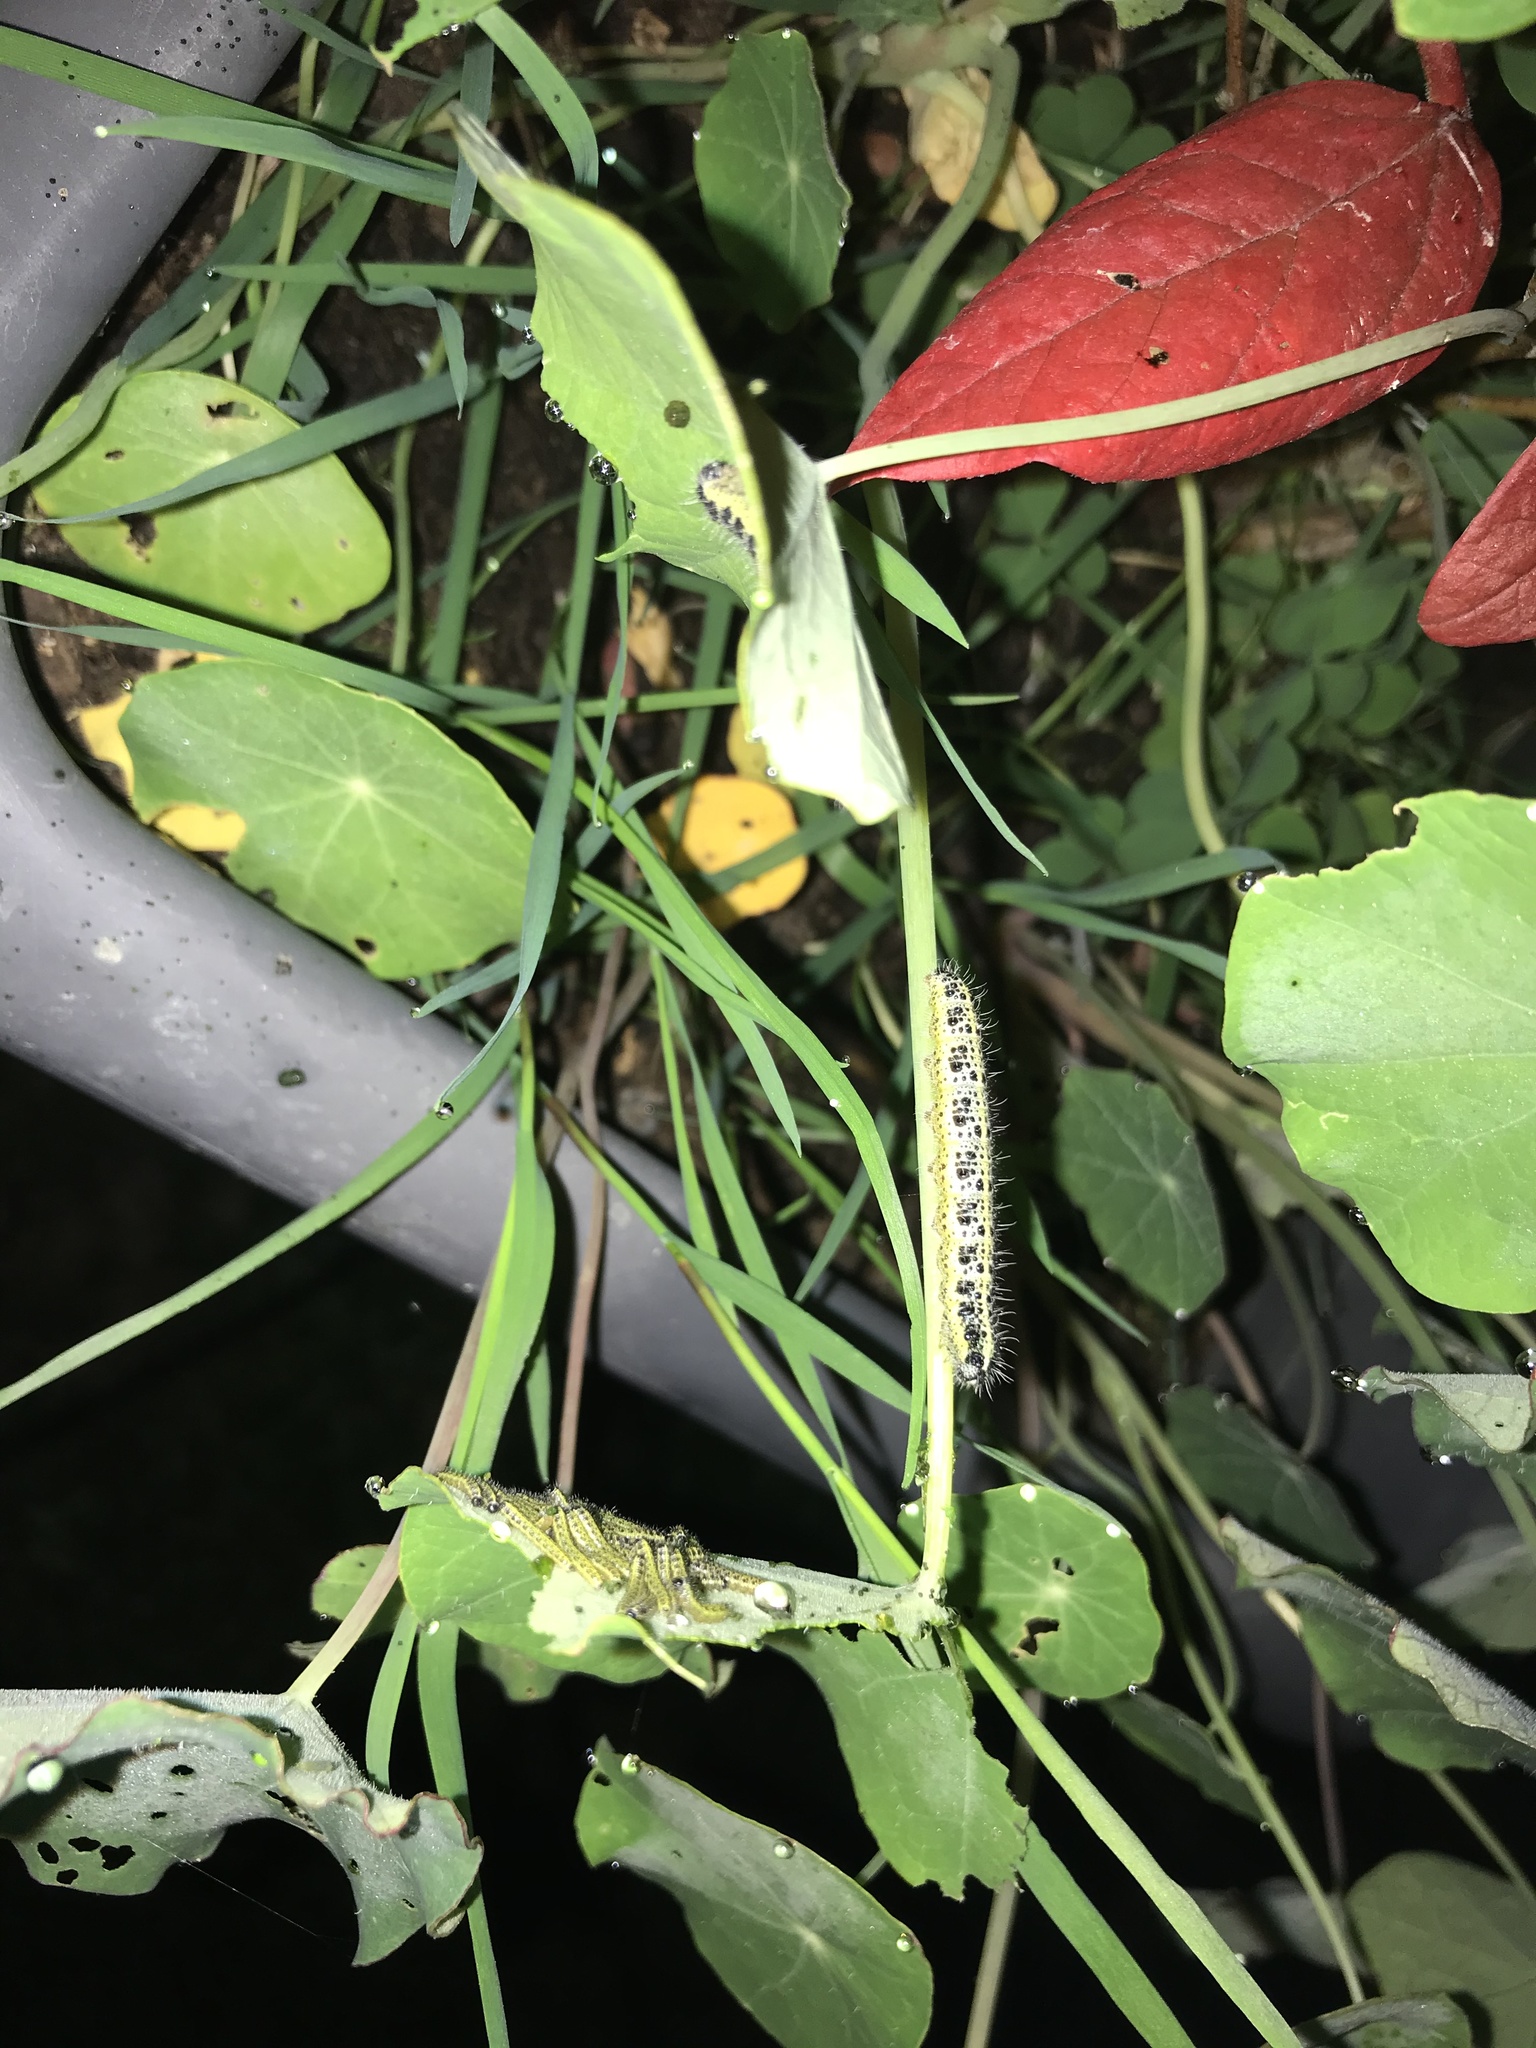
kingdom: Animalia
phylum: Arthropoda
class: Insecta
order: Lepidoptera
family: Pieridae
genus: Pieris
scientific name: Pieris brassicae
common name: Large white
